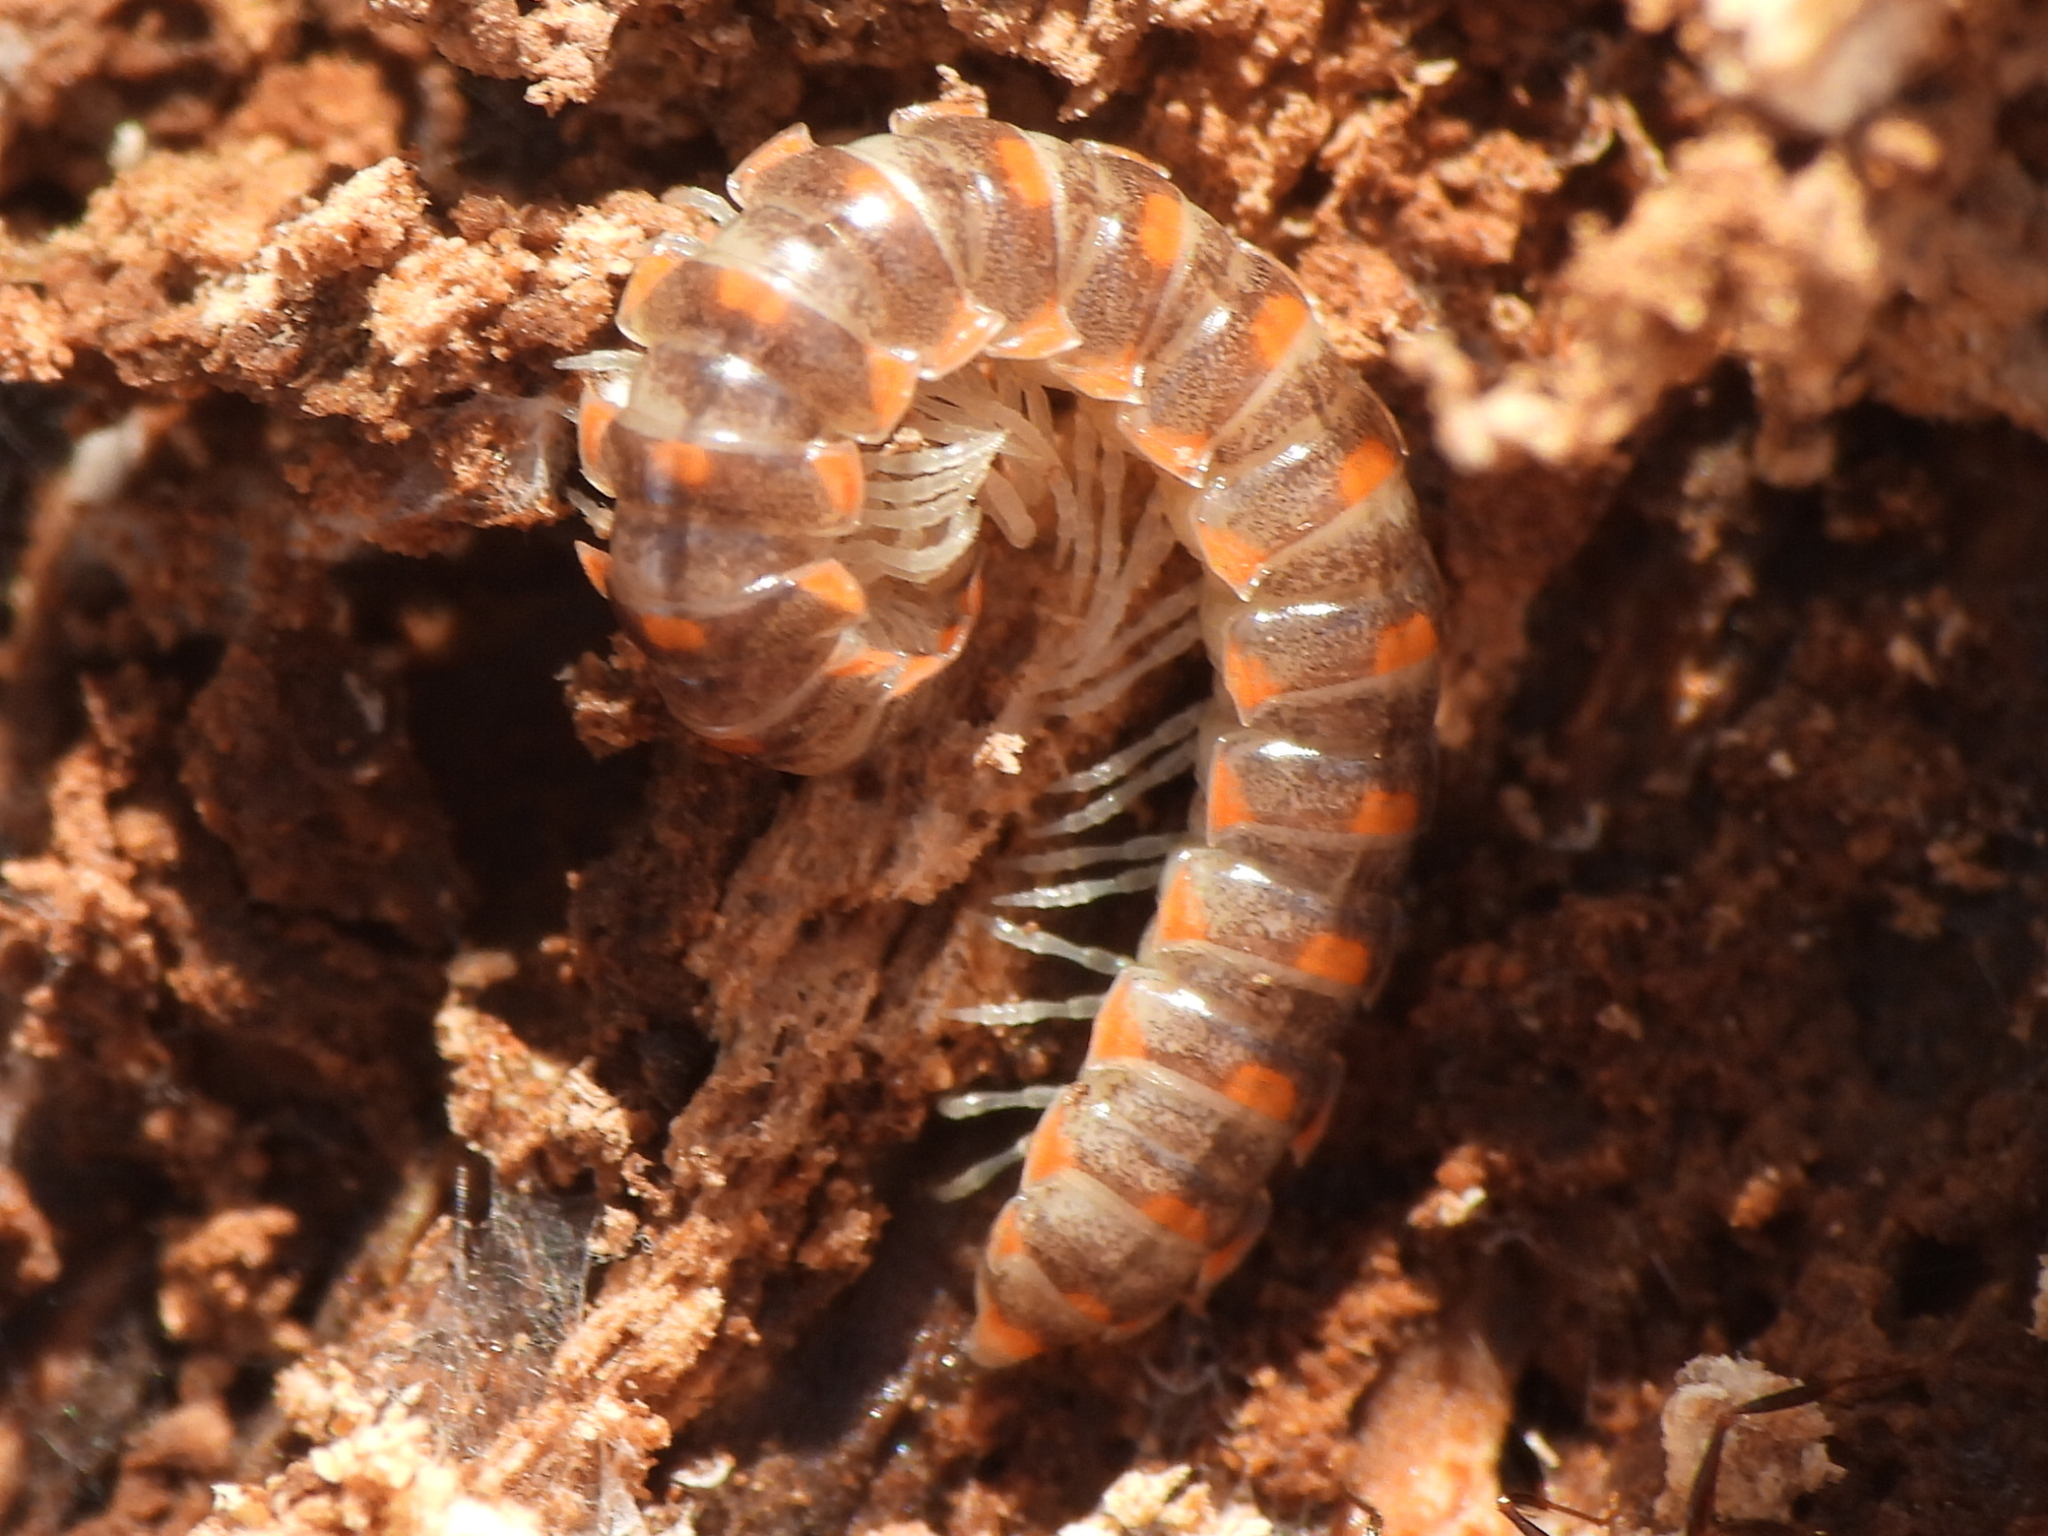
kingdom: Animalia
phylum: Arthropoda
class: Diplopoda
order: Polydesmida
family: Xystodesmidae
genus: Euryurus
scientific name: Euryurus leachii
